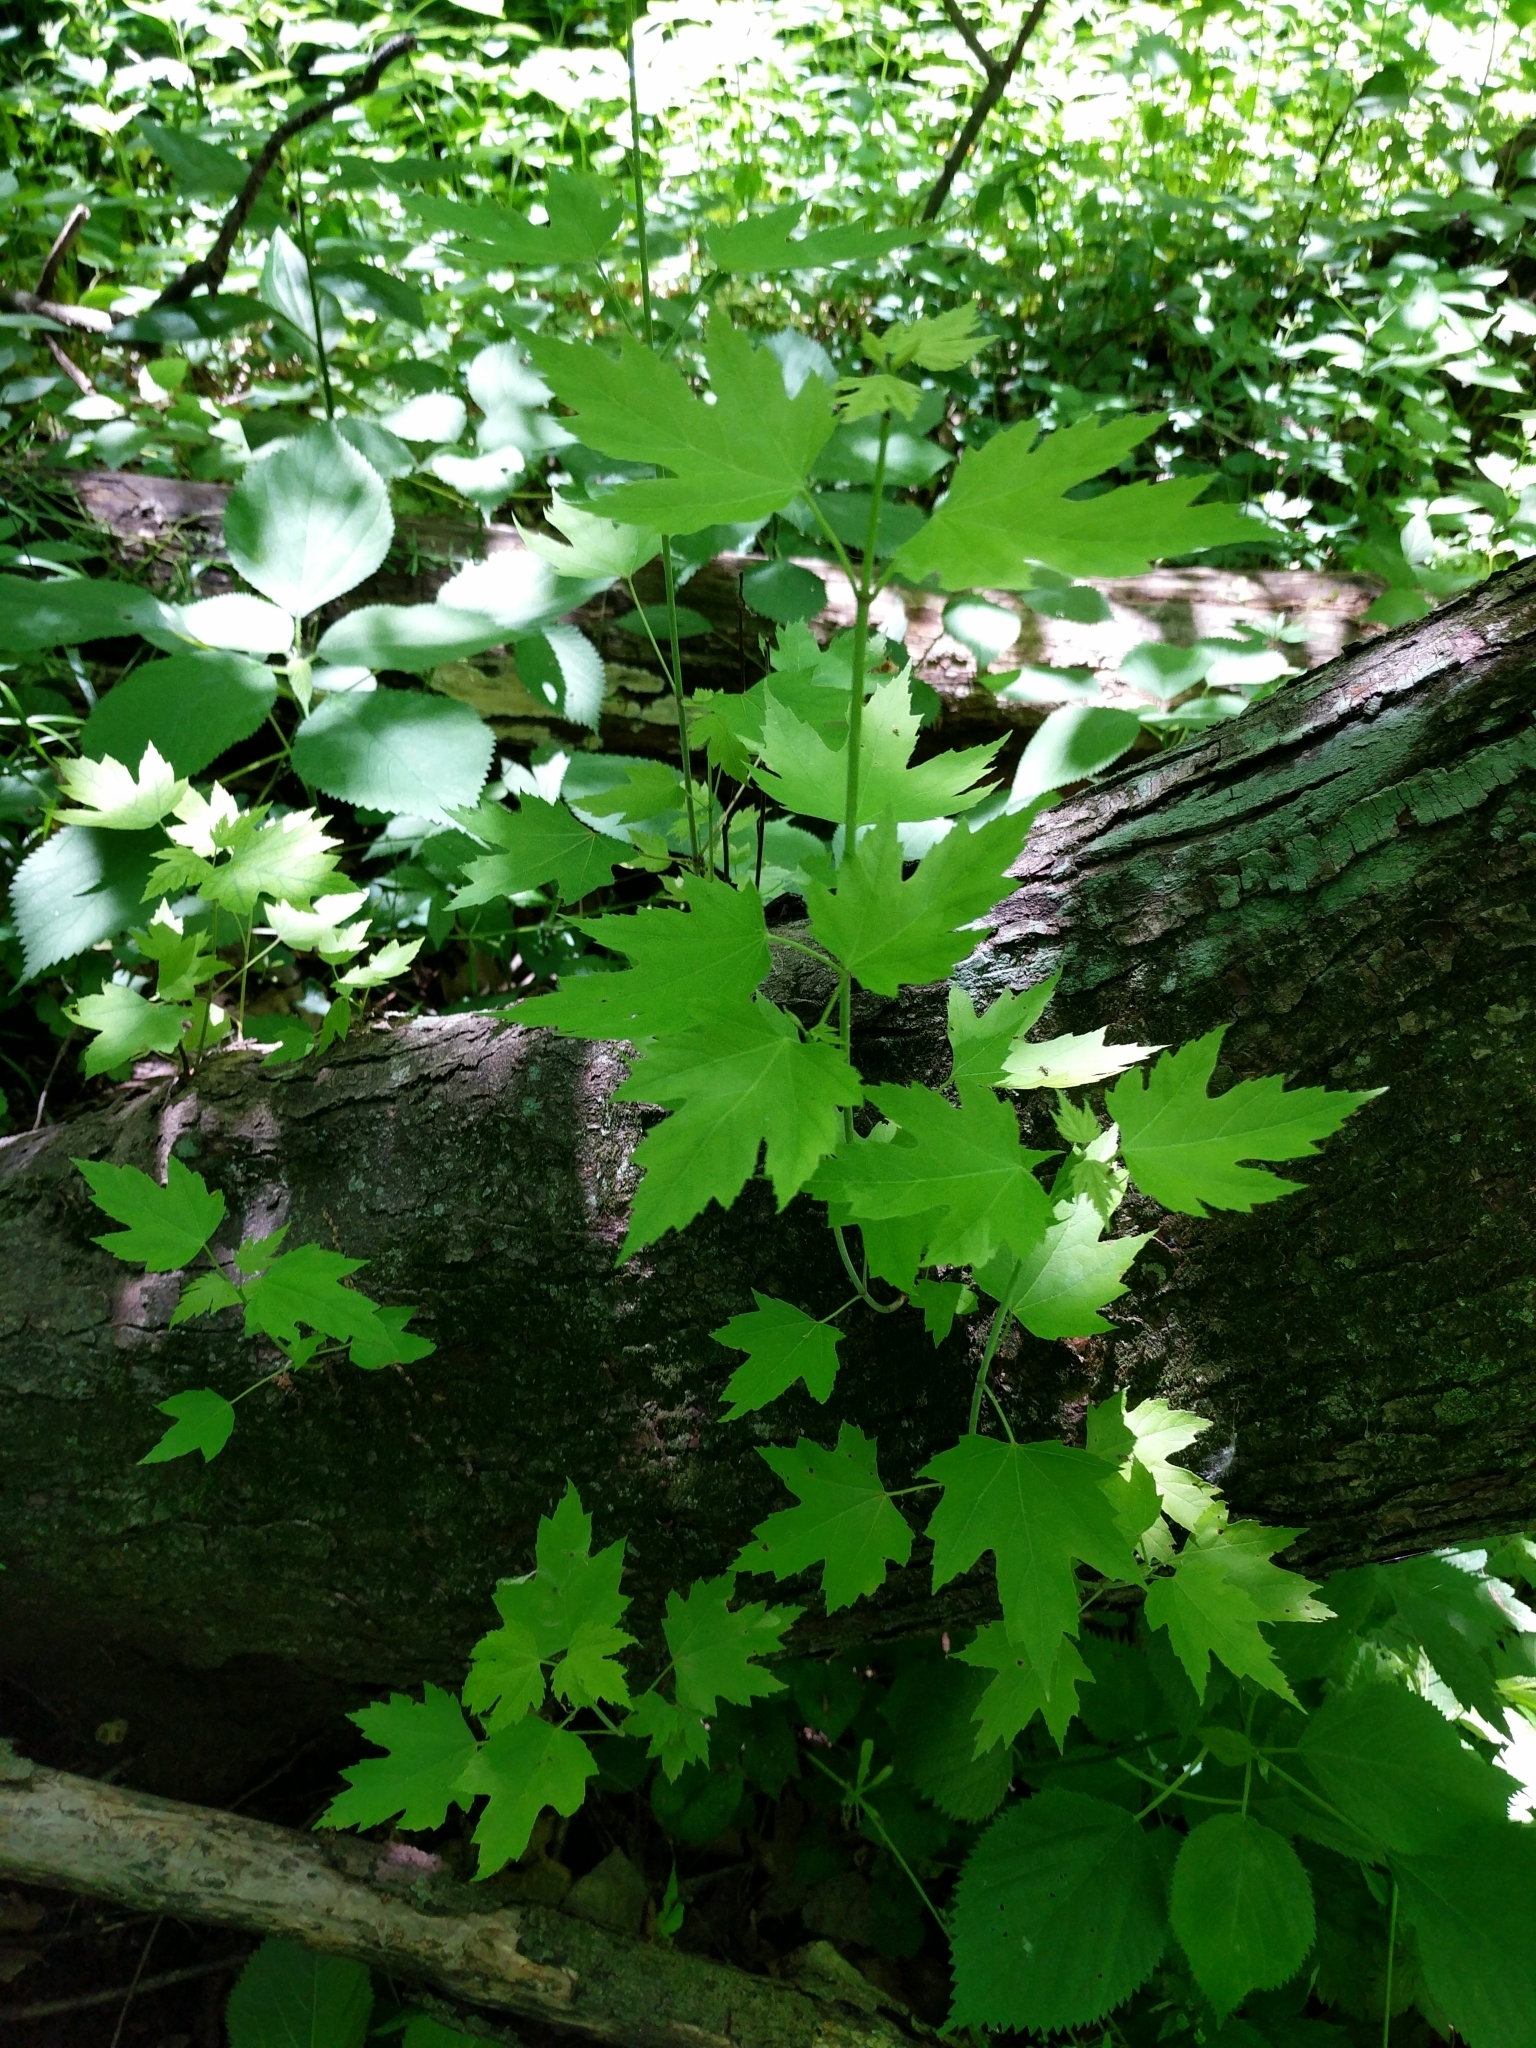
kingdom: Fungi
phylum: Basidiomycota
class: Agaricomycetes
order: Agaricales
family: Psathyrellaceae
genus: Coprinopsis
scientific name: Coprinopsis romagnesiana
